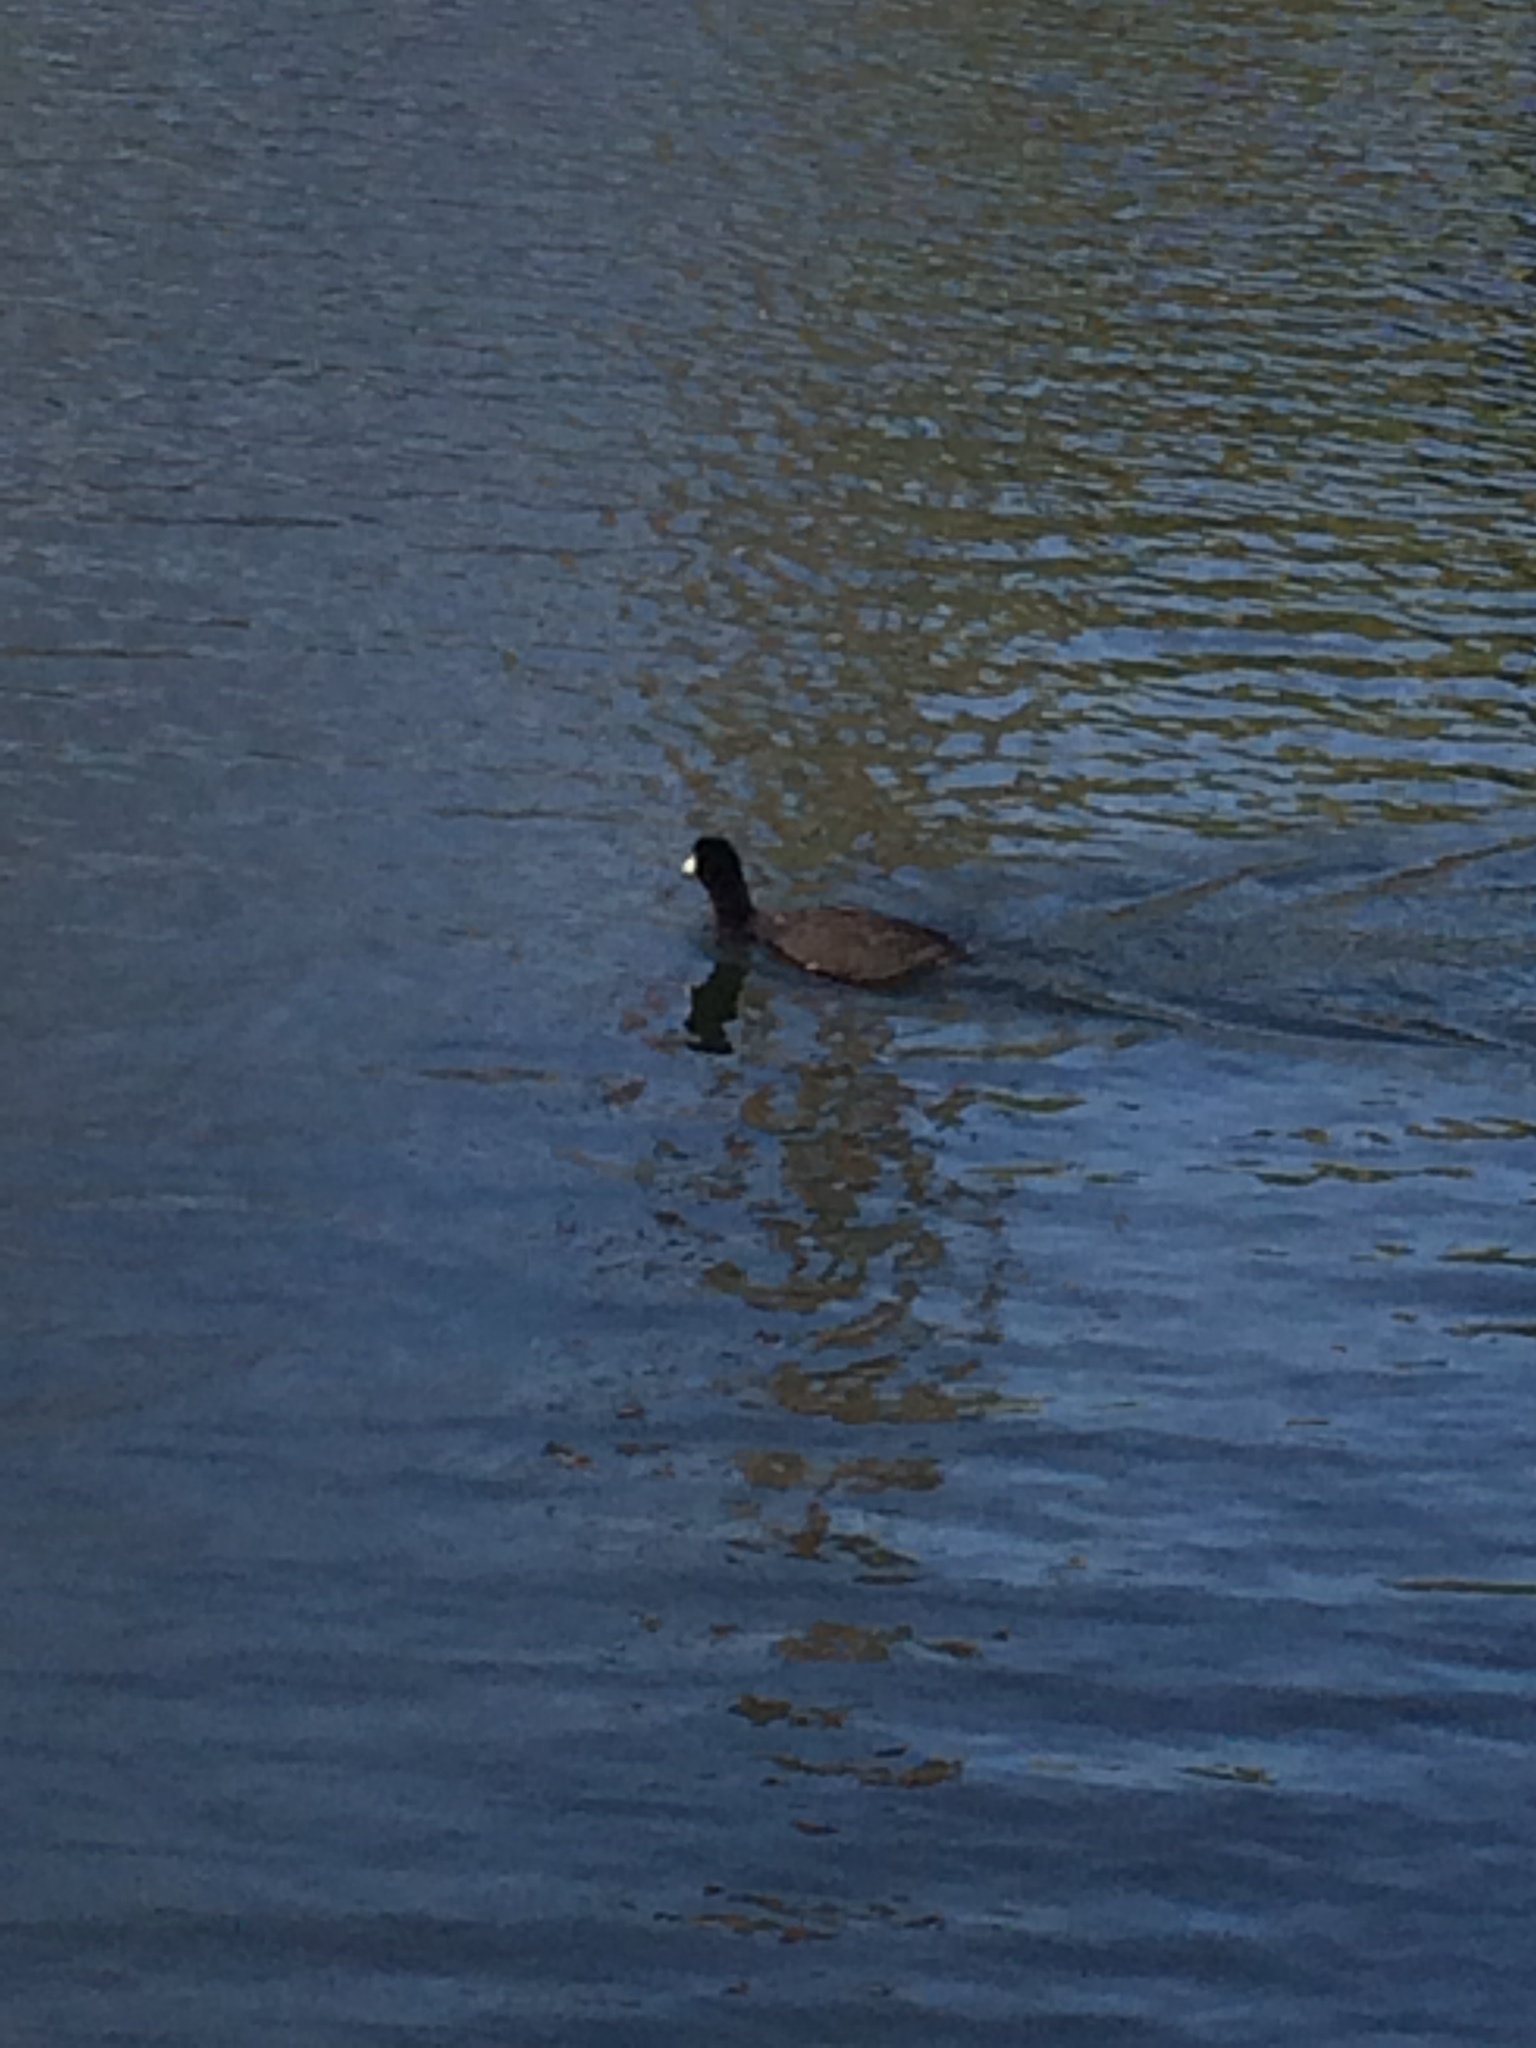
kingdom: Animalia
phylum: Chordata
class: Aves
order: Gruiformes
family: Rallidae
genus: Fulica
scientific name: Fulica americana
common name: American coot
